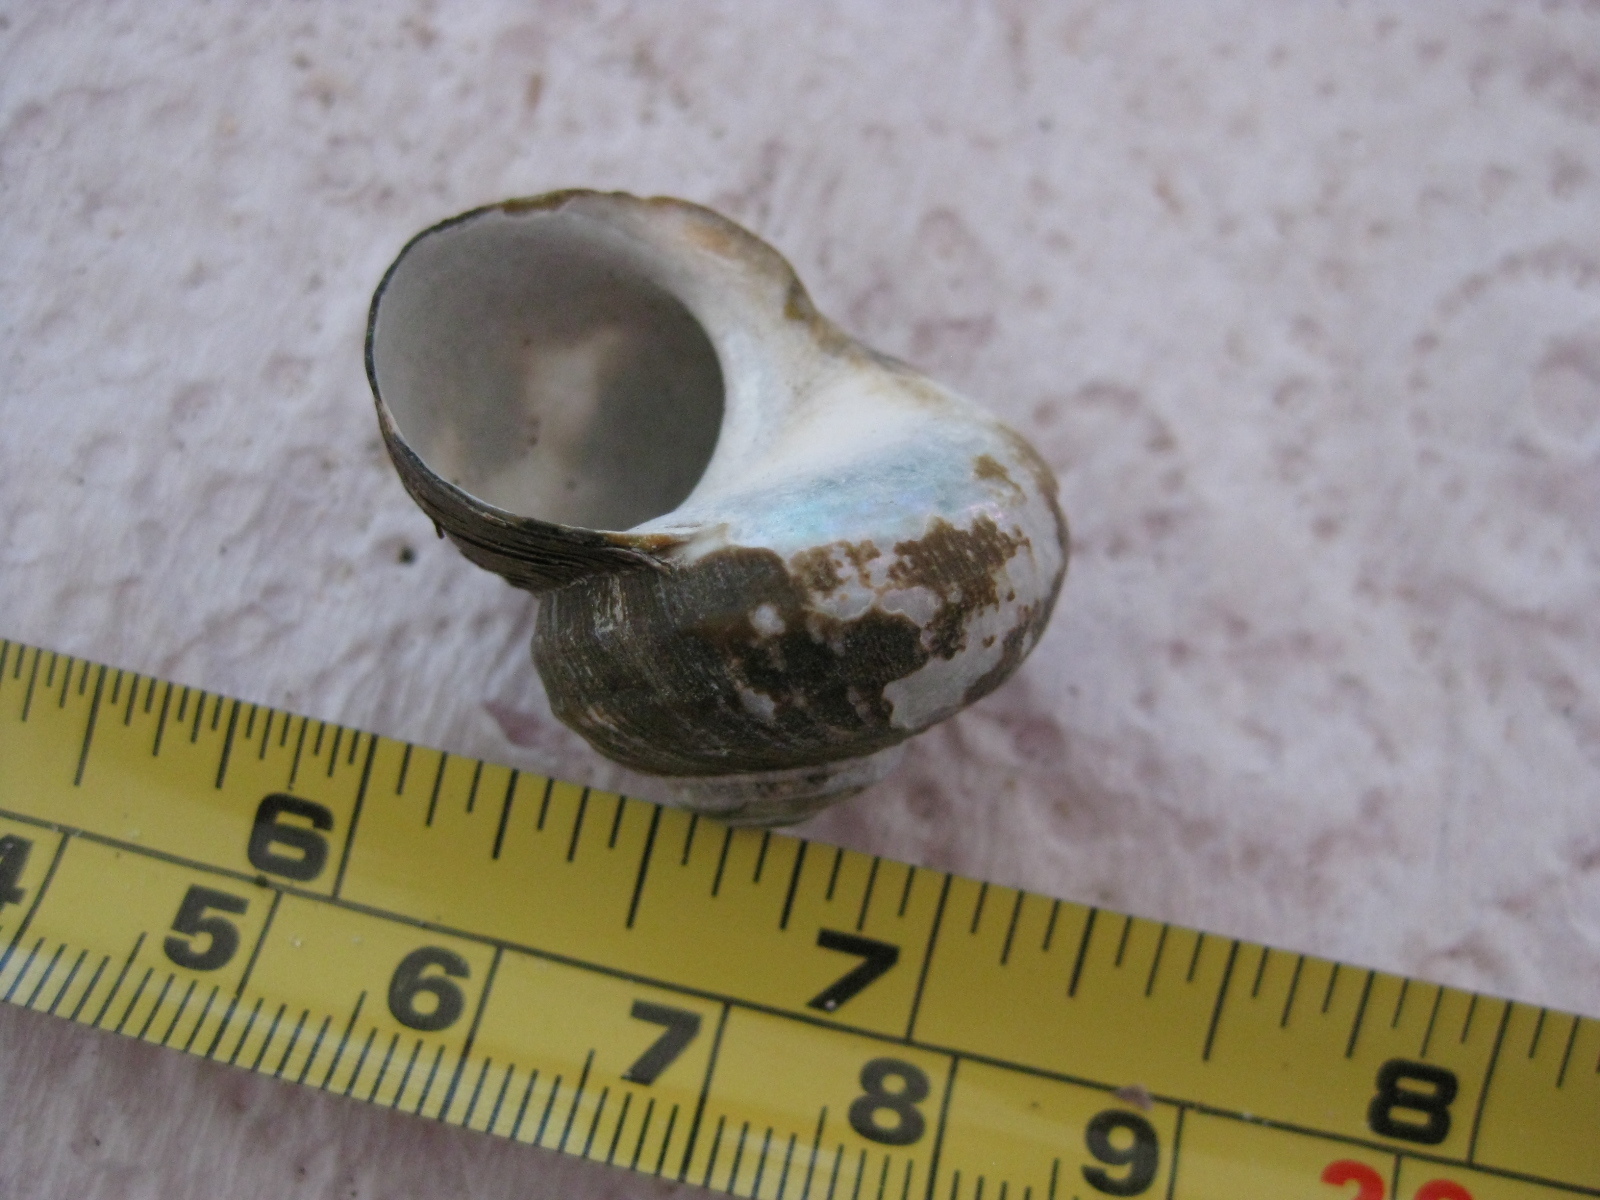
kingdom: Animalia
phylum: Mollusca
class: Gastropoda
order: Trochida
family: Turbinidae
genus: Lunella
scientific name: Lunella smaragda
